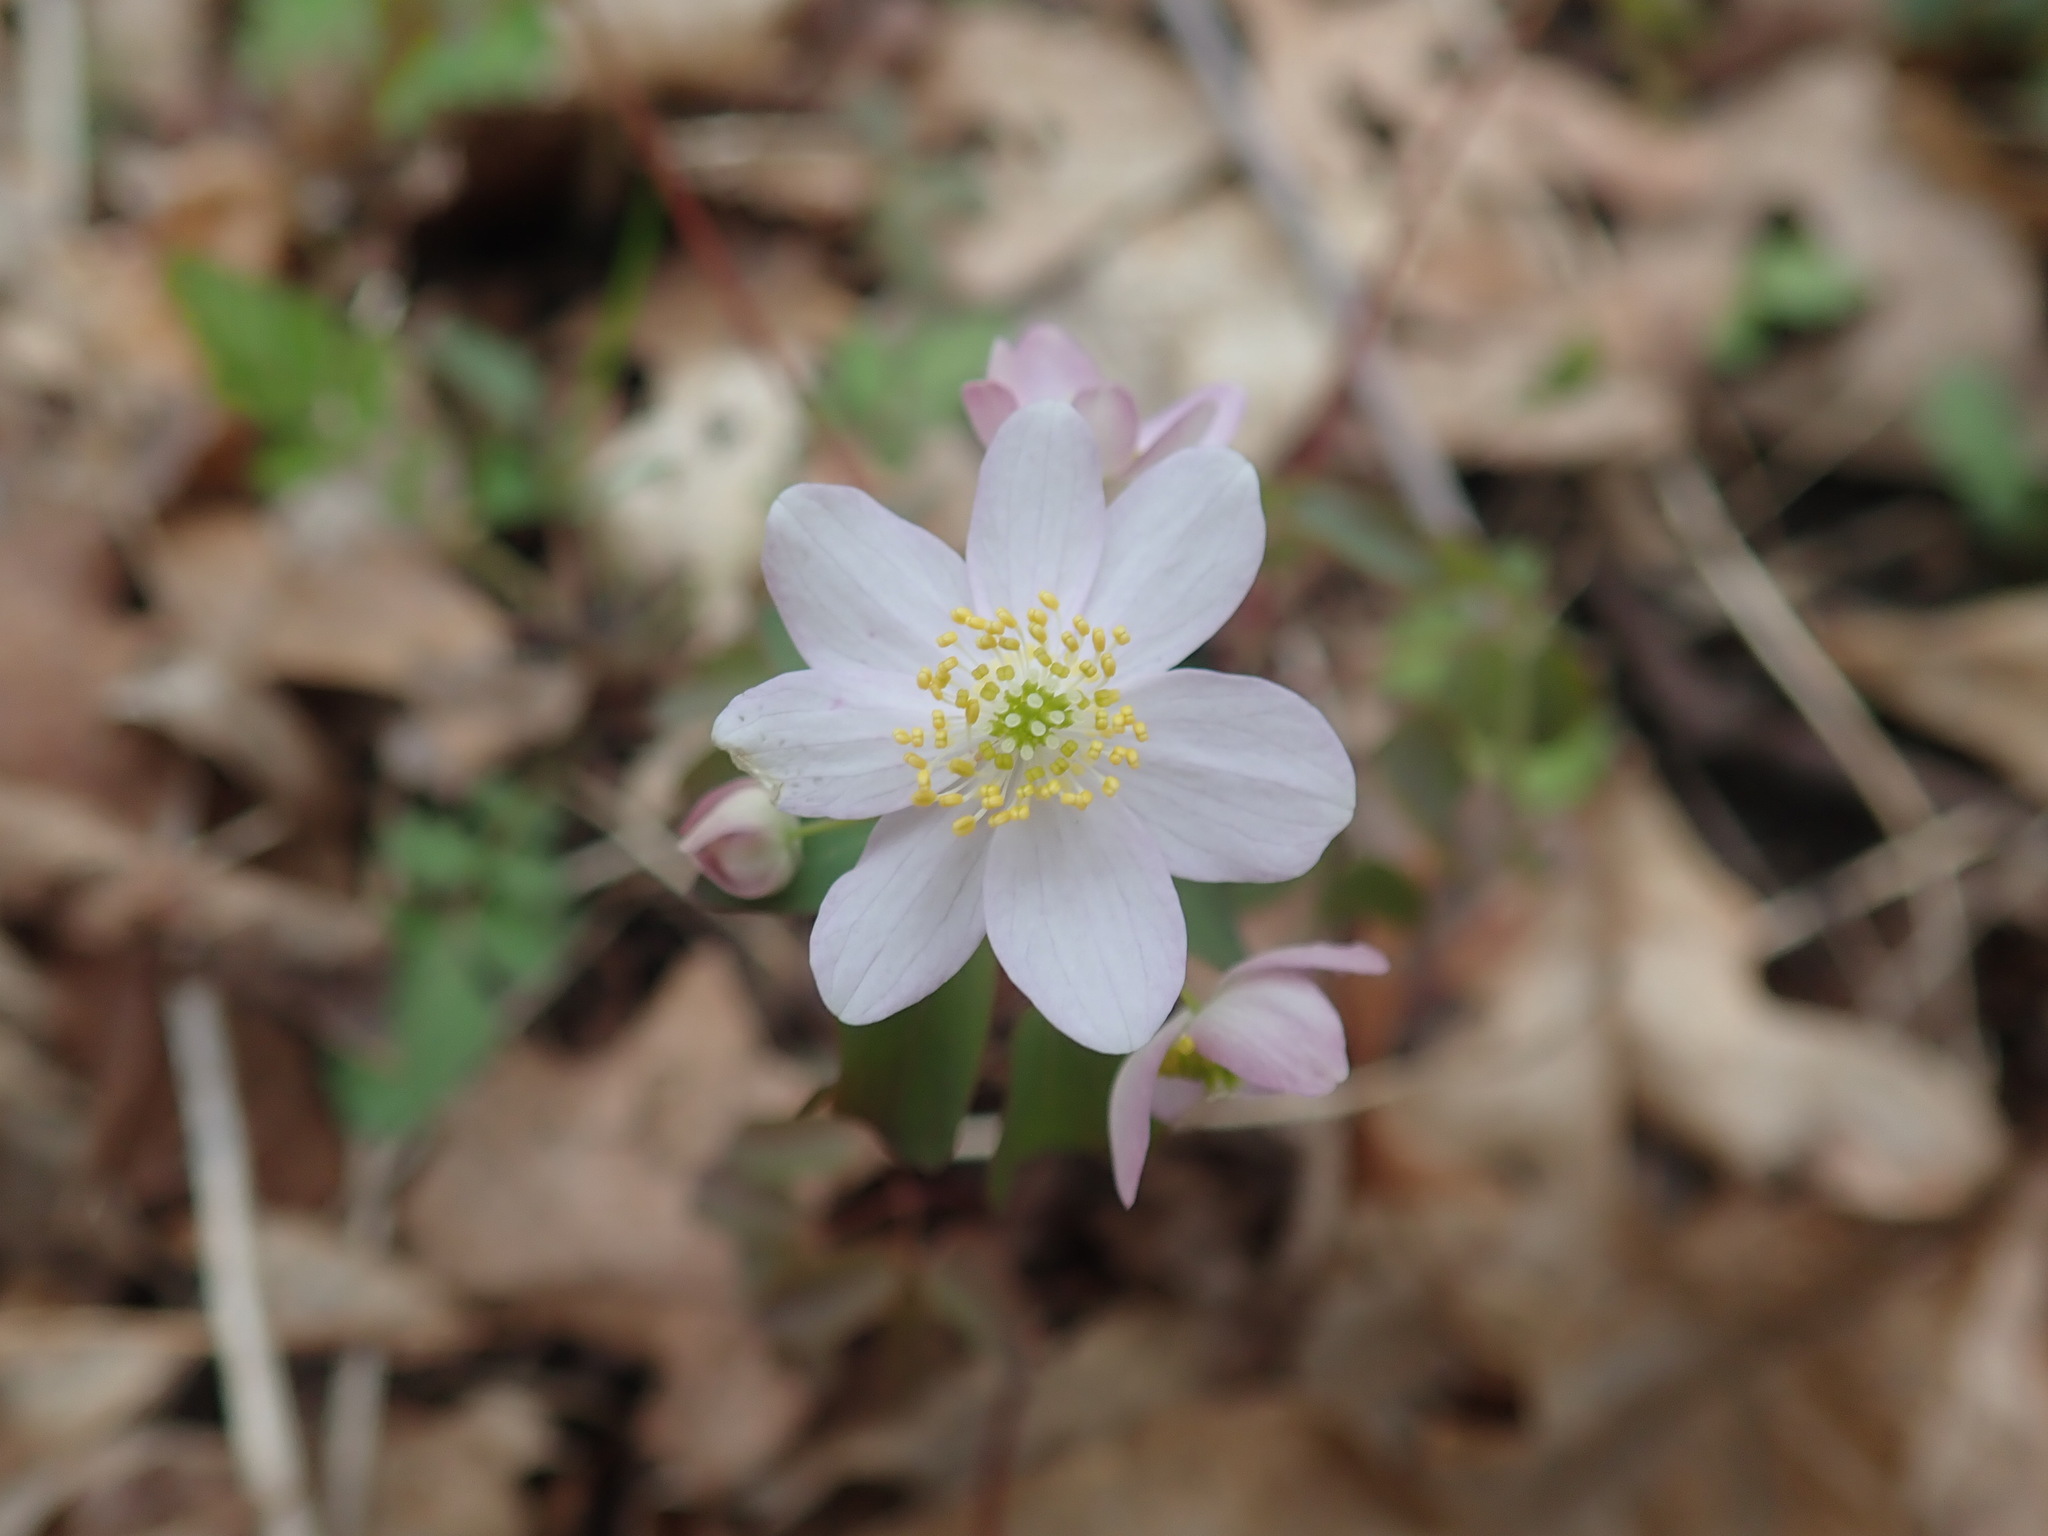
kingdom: Plantae
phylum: Tracheophyta
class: Magnoliopsida
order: Ranunculales
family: Ranunculaceae
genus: Thalictrum
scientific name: Thalictrum thalictroides
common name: Rue-anemone
